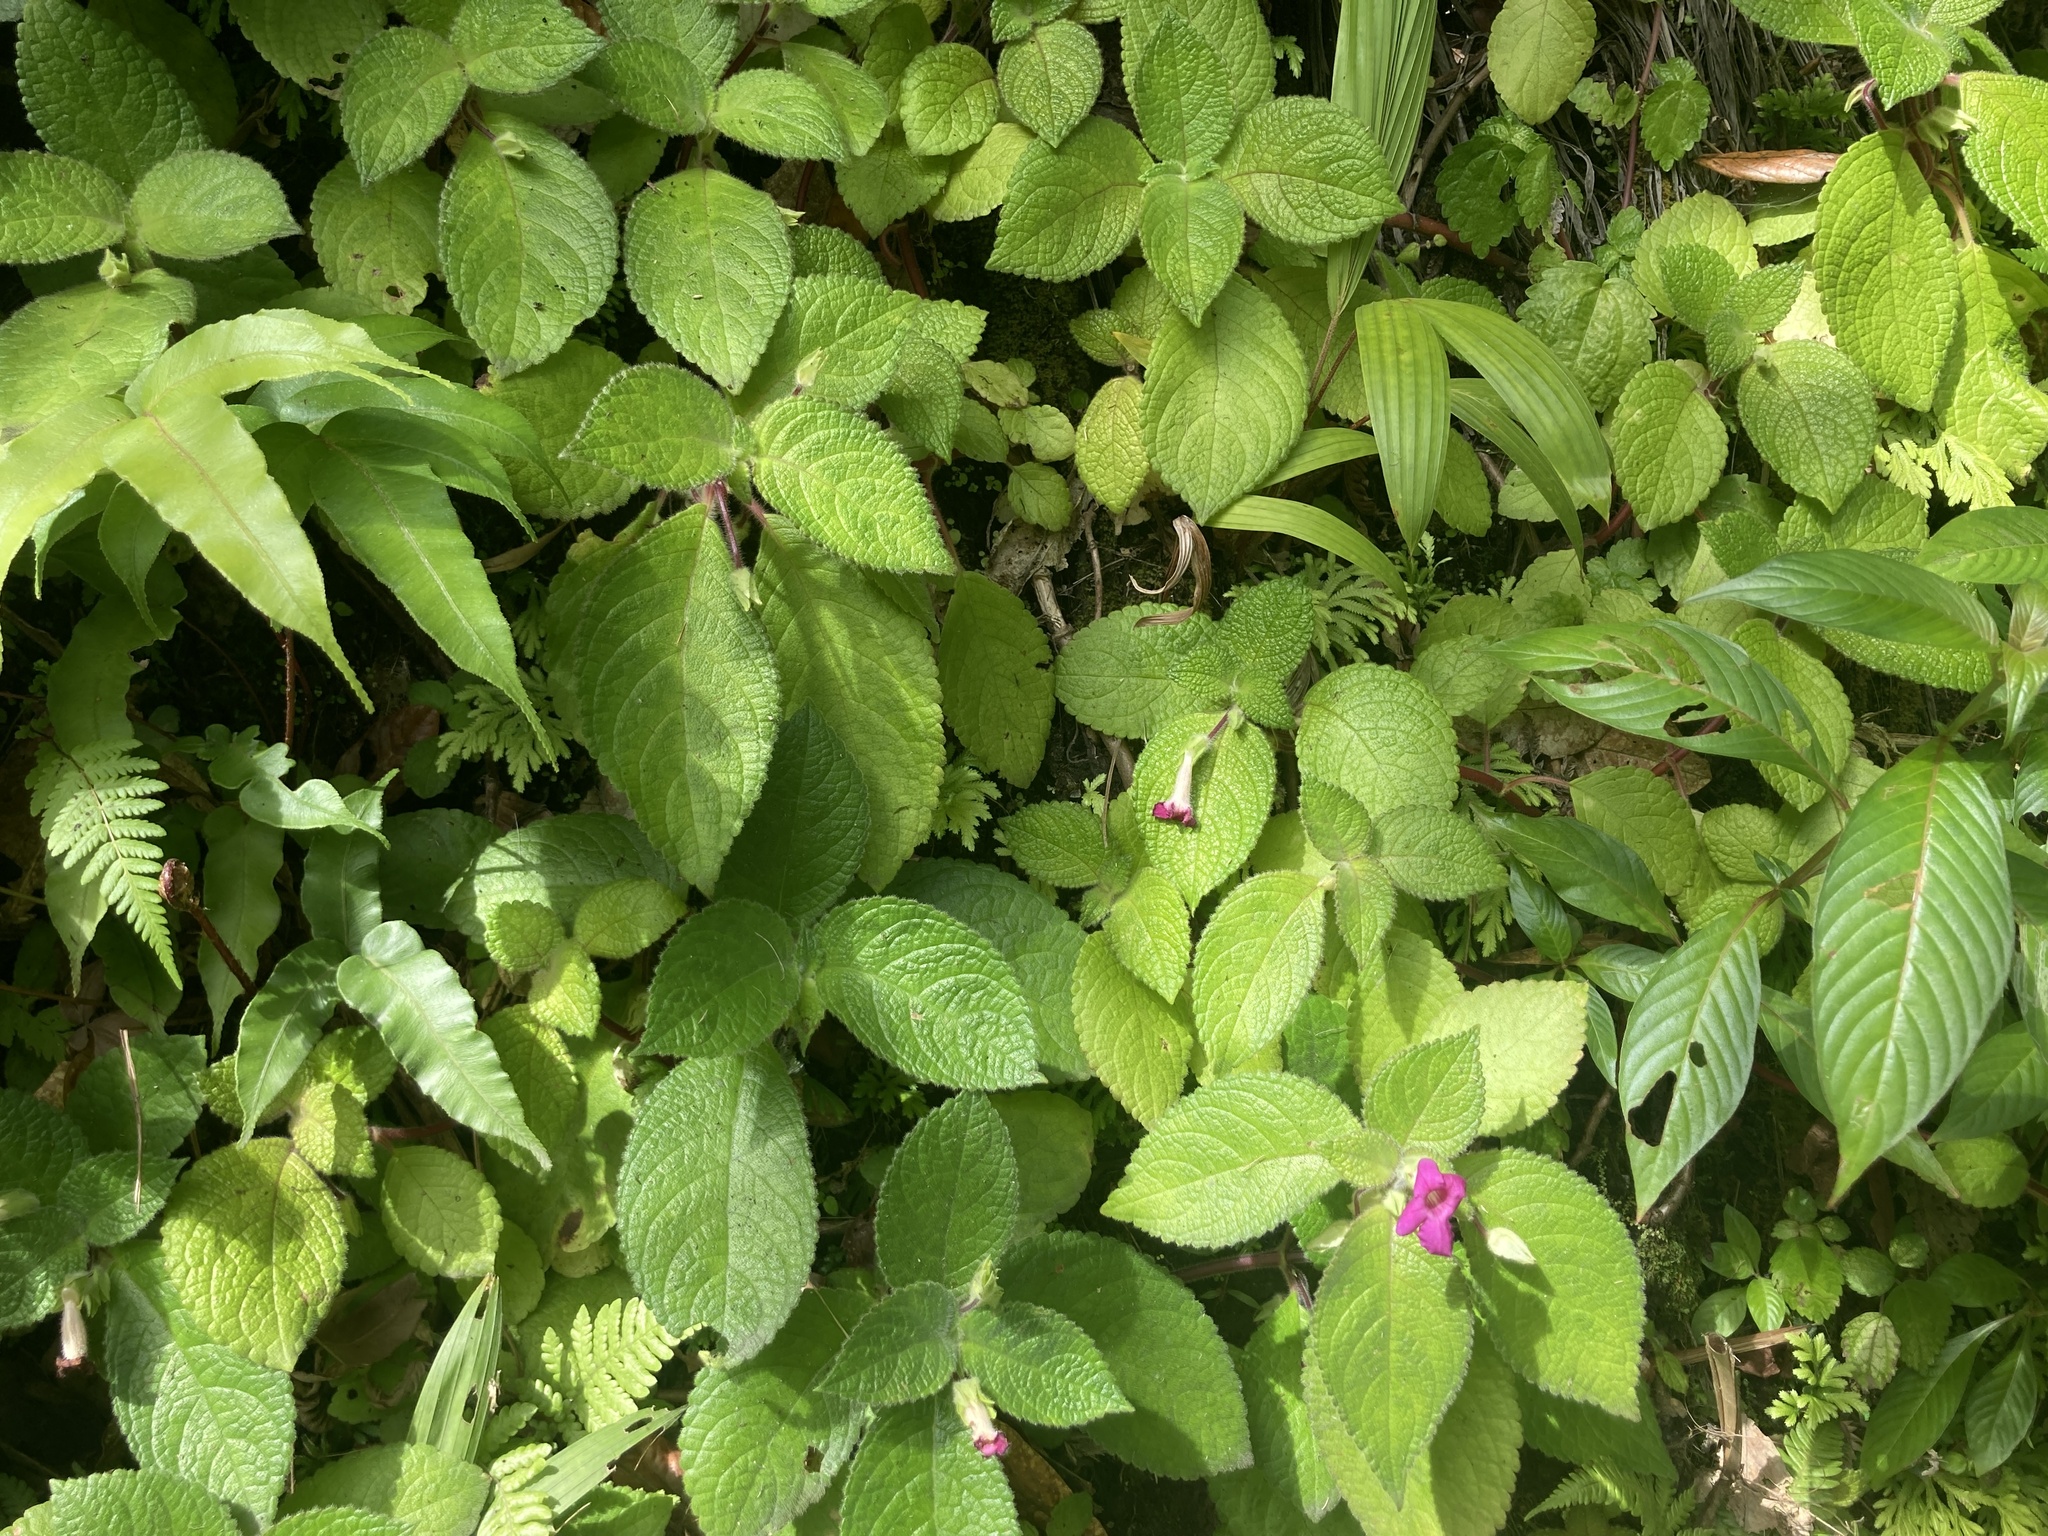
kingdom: Plantae
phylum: Tracheophyta
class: Magnoliopsida
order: Lamiales
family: Gesneriaceae
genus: Chrysothemis
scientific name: Chrysothemis melittifolia
